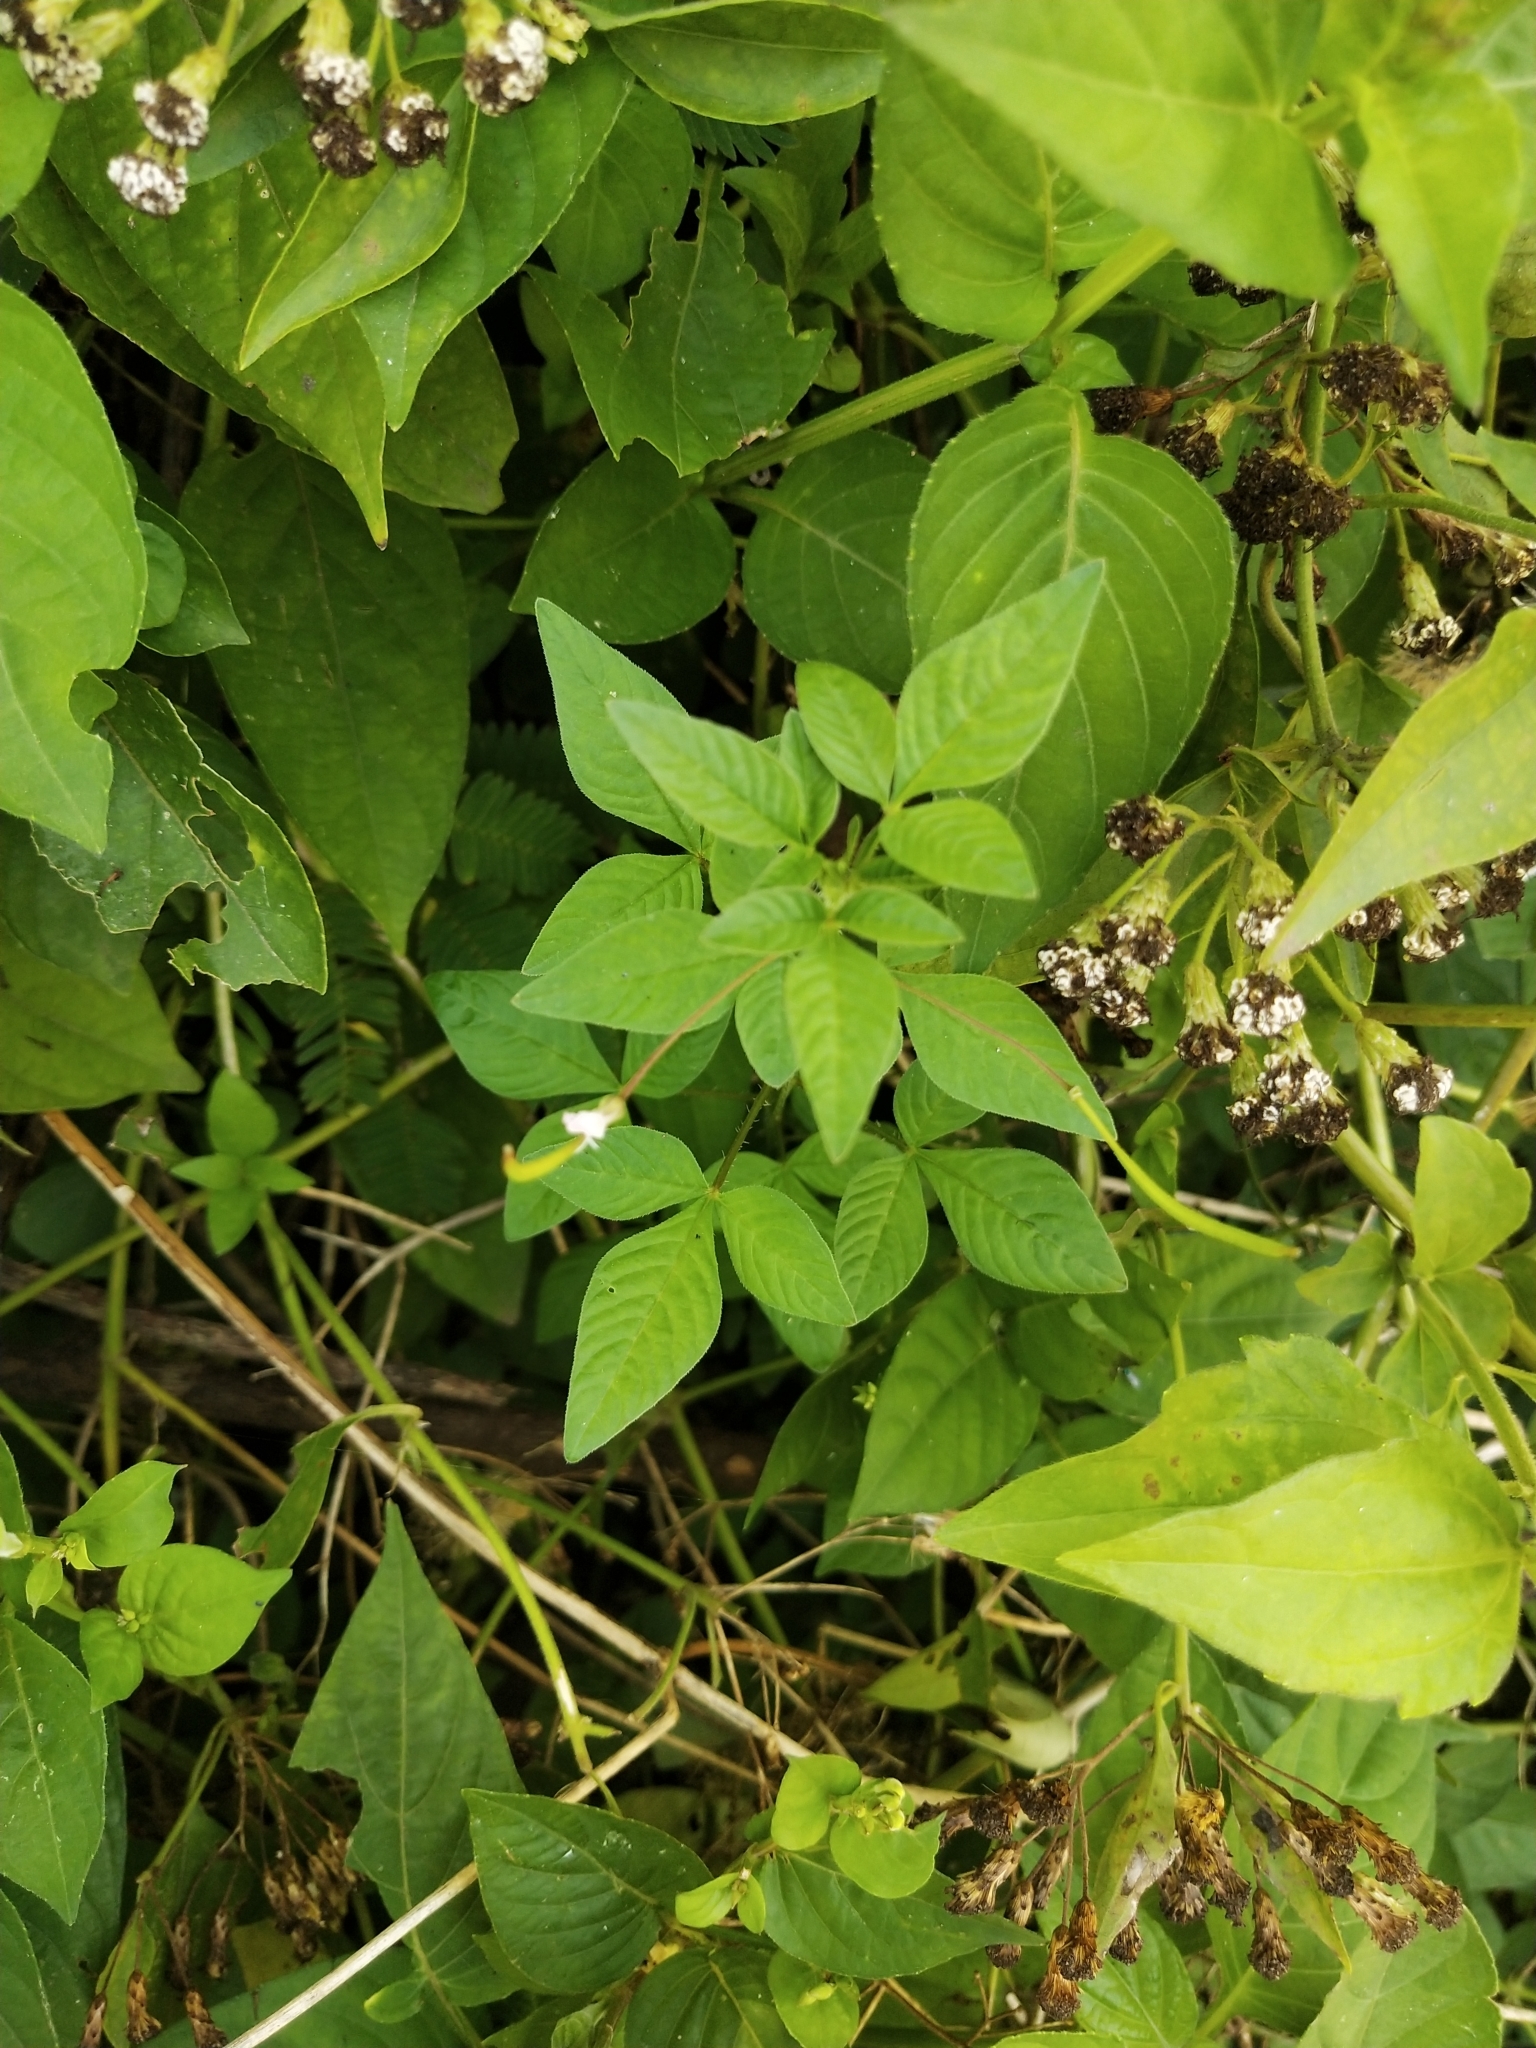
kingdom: Plantae
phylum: Tracheophyta
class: Magnoliopsida
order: Brassicales
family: Cleomaceae
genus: Sieruela
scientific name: Sieruela rutidosperma
